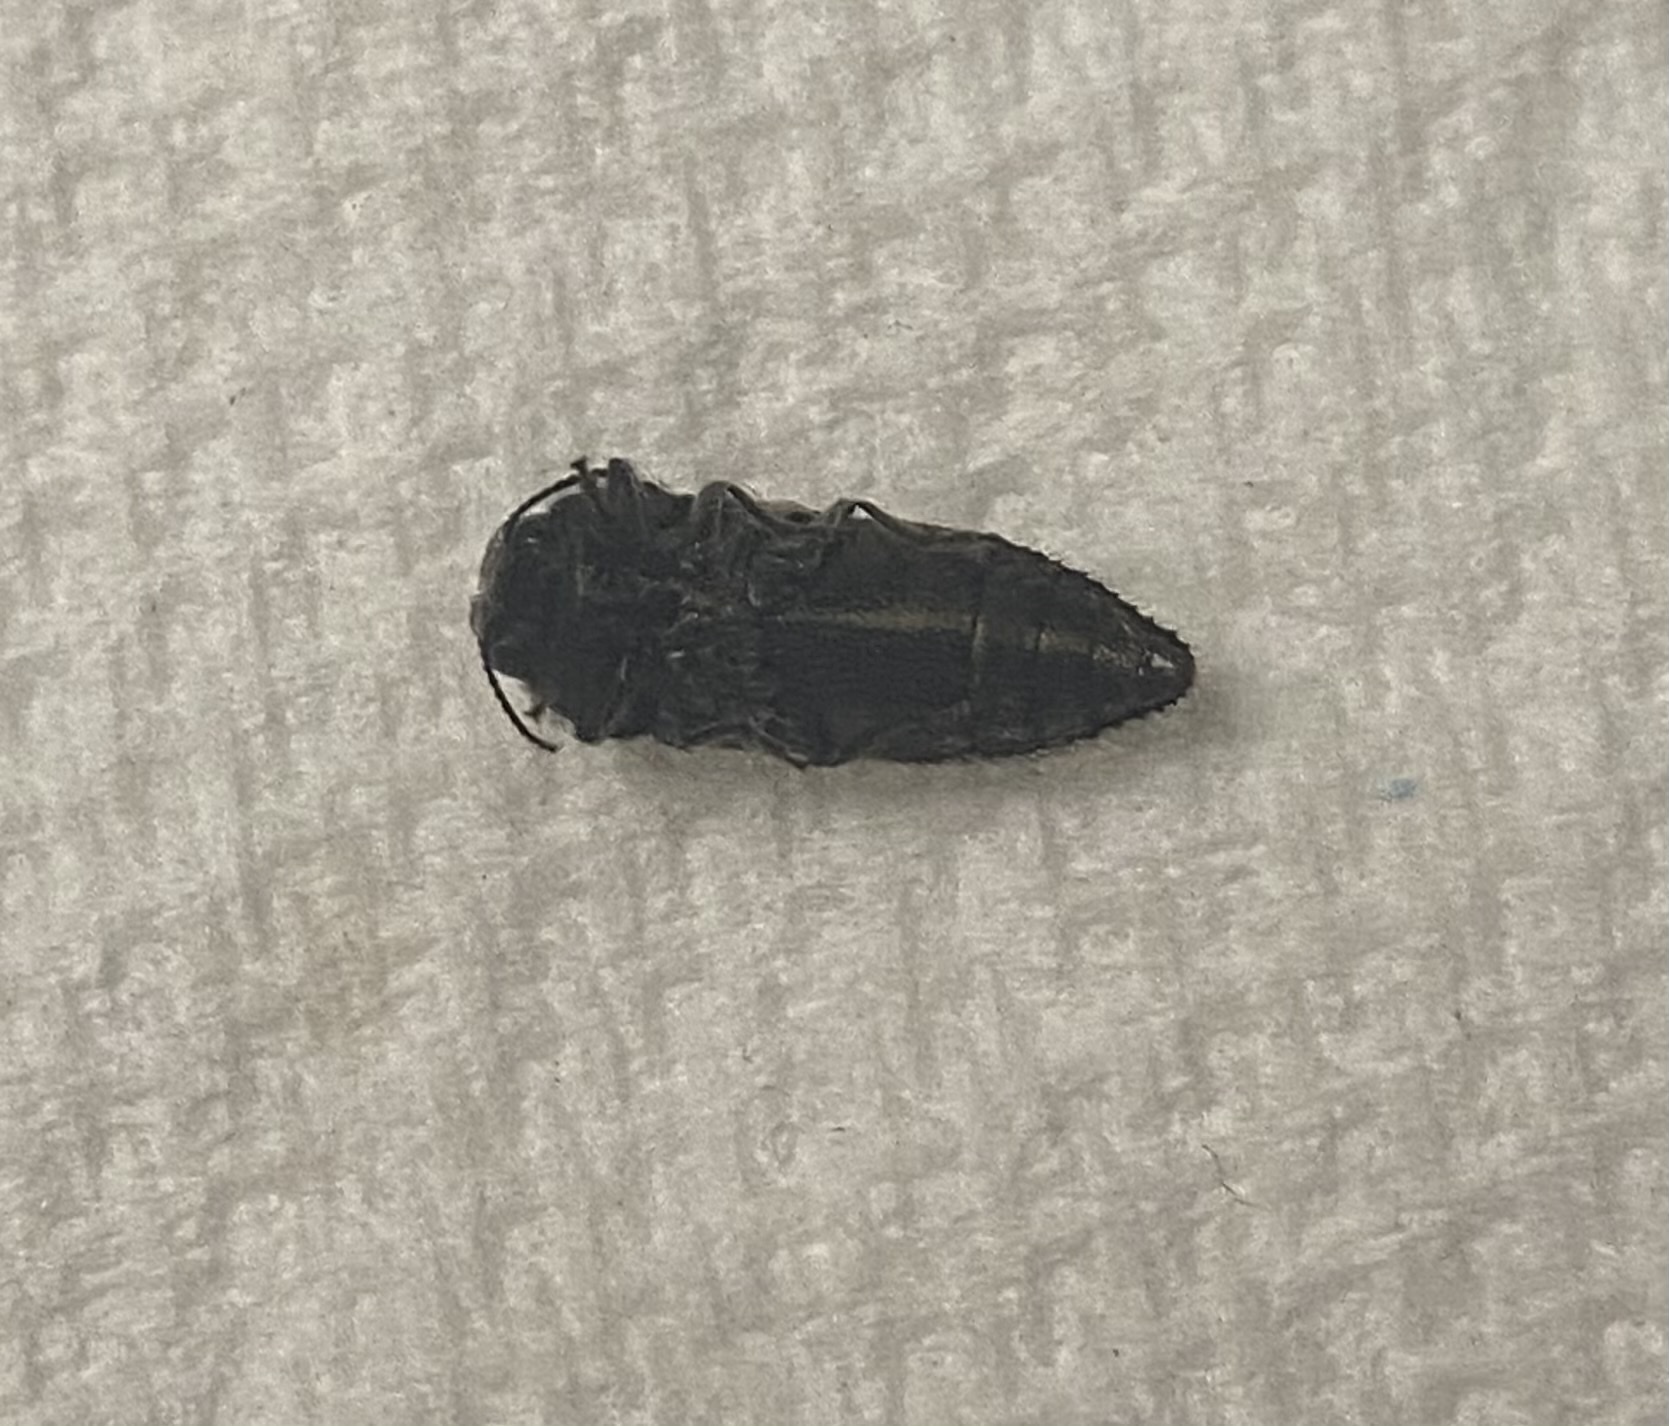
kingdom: Animalia
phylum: Arthropoda
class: Insecta
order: Coleoptera
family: Buprestidae
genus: Acmaeodera
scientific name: Acmaeodera bowditchi
